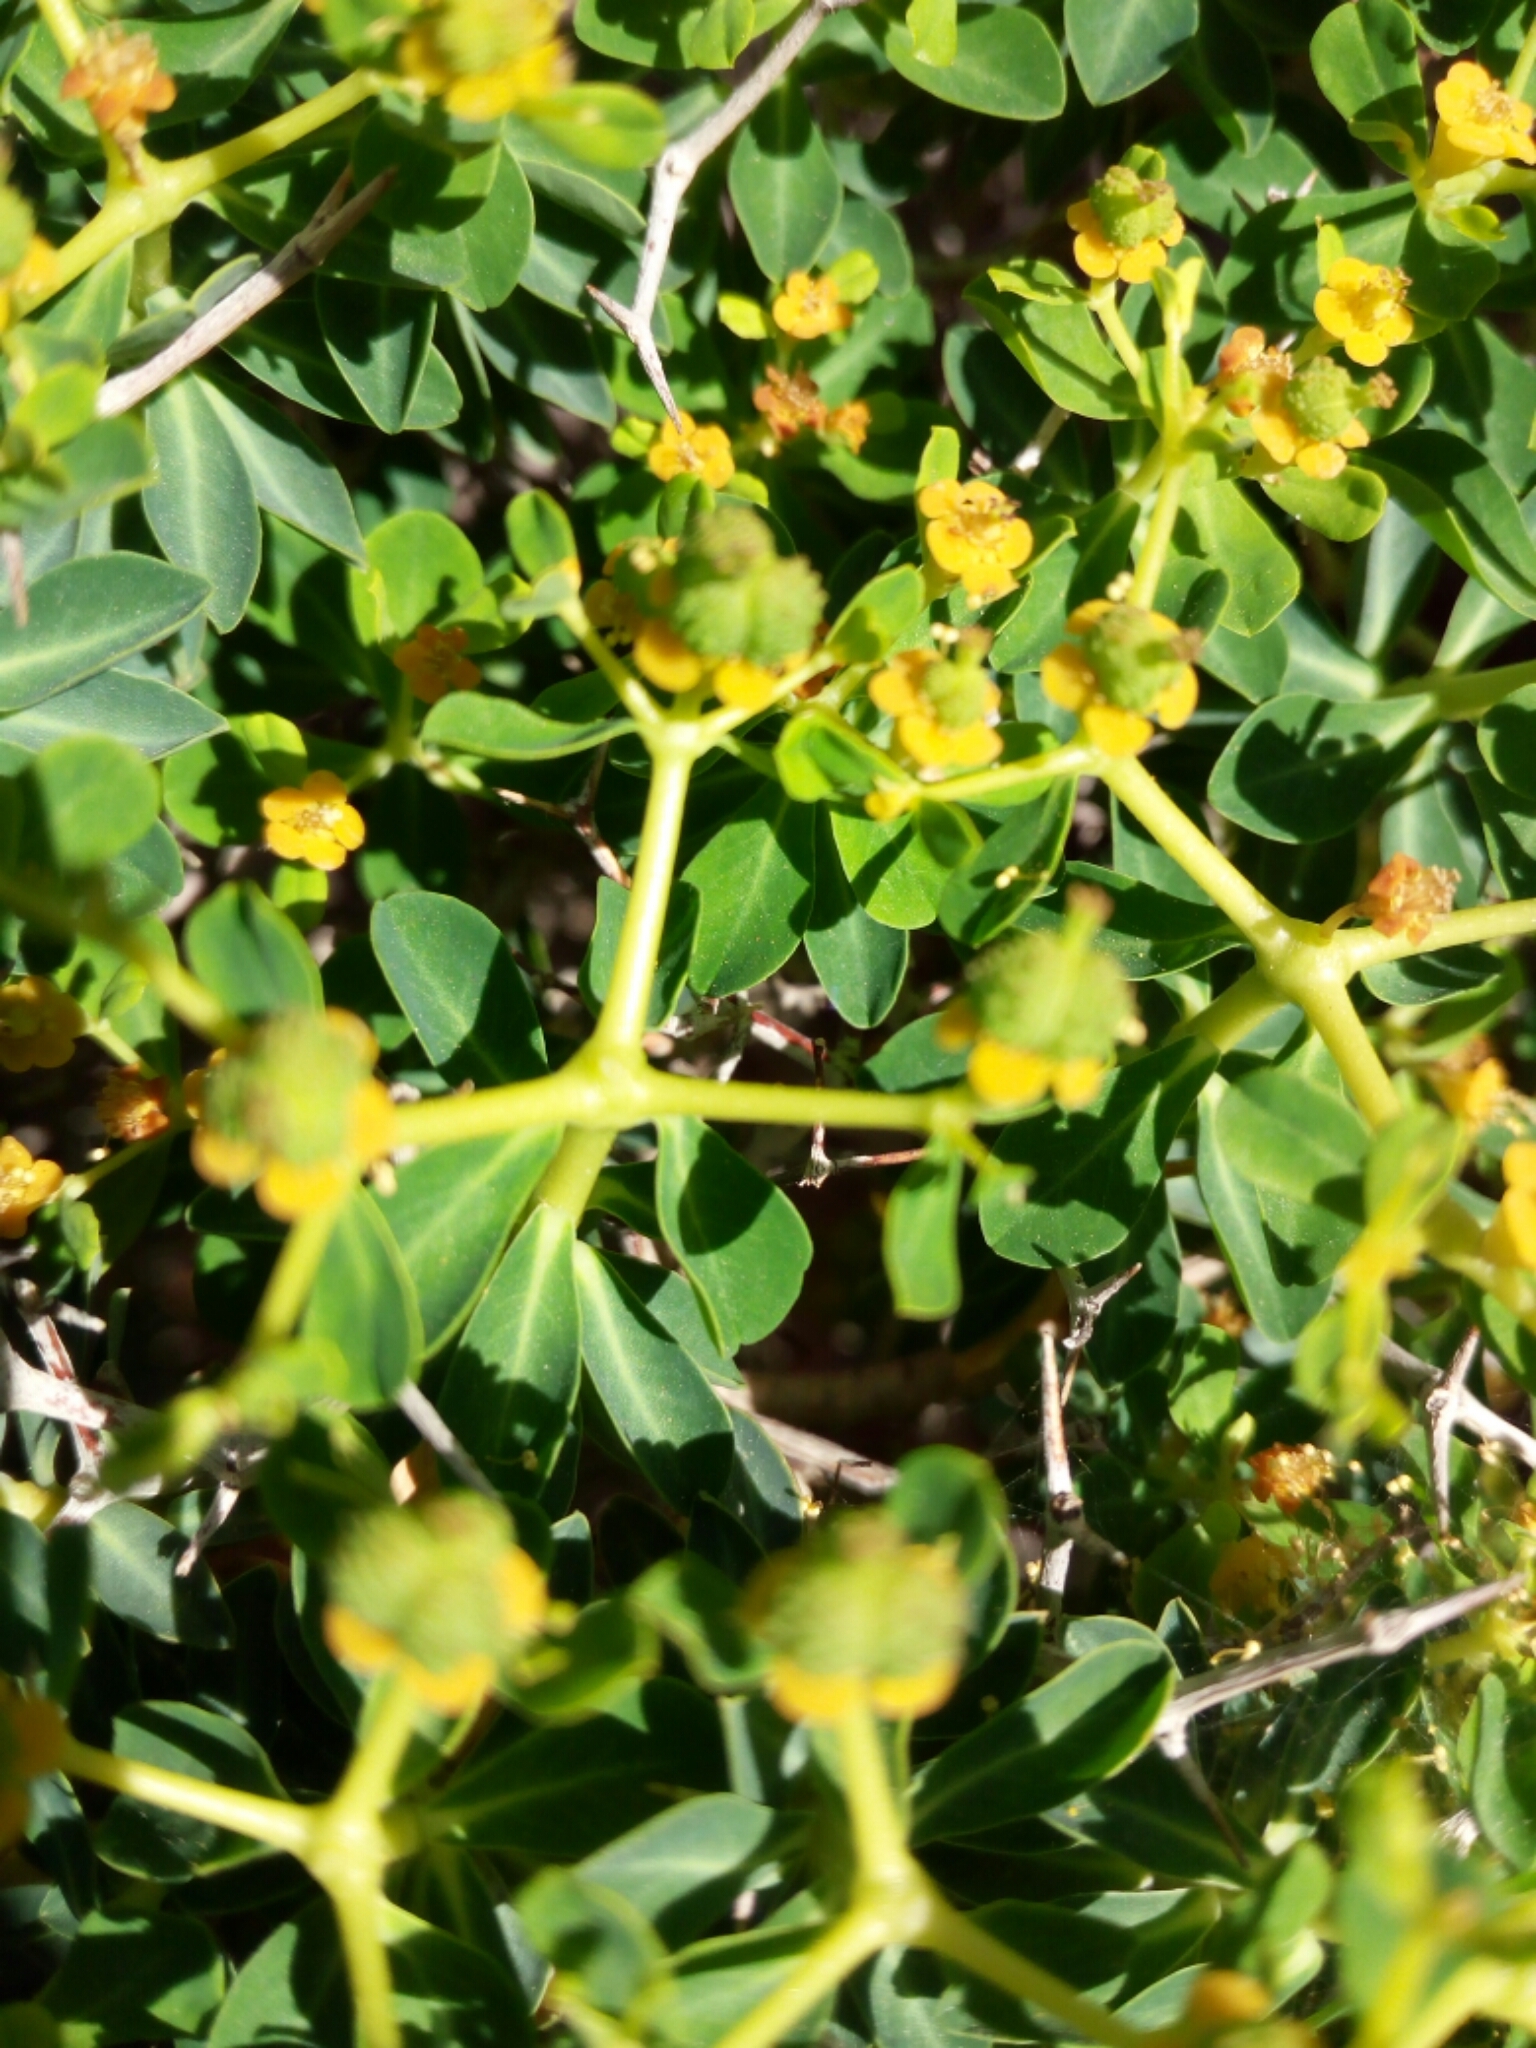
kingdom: Plantae
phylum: Tracheophyta
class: Magnoliopsida
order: Malpighiales
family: Euphorbiaceae
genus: Euphorbia
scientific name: Euphorbia acanthothamnos
